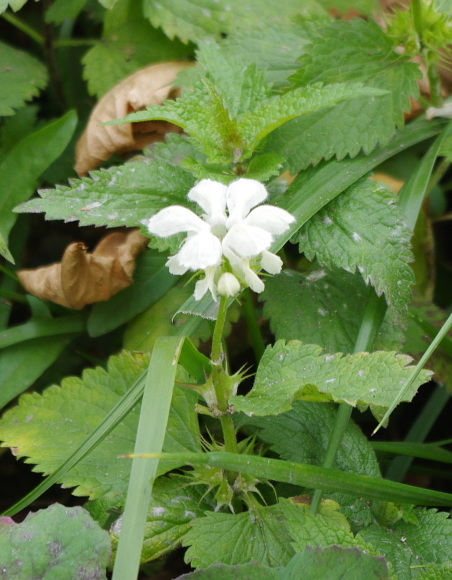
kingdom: Plantae
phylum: Tracheophyta
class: Magnoliopsida
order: Lamiales
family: Lamiaceae
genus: Lamium
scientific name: Lamium album
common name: White dead-nettle
